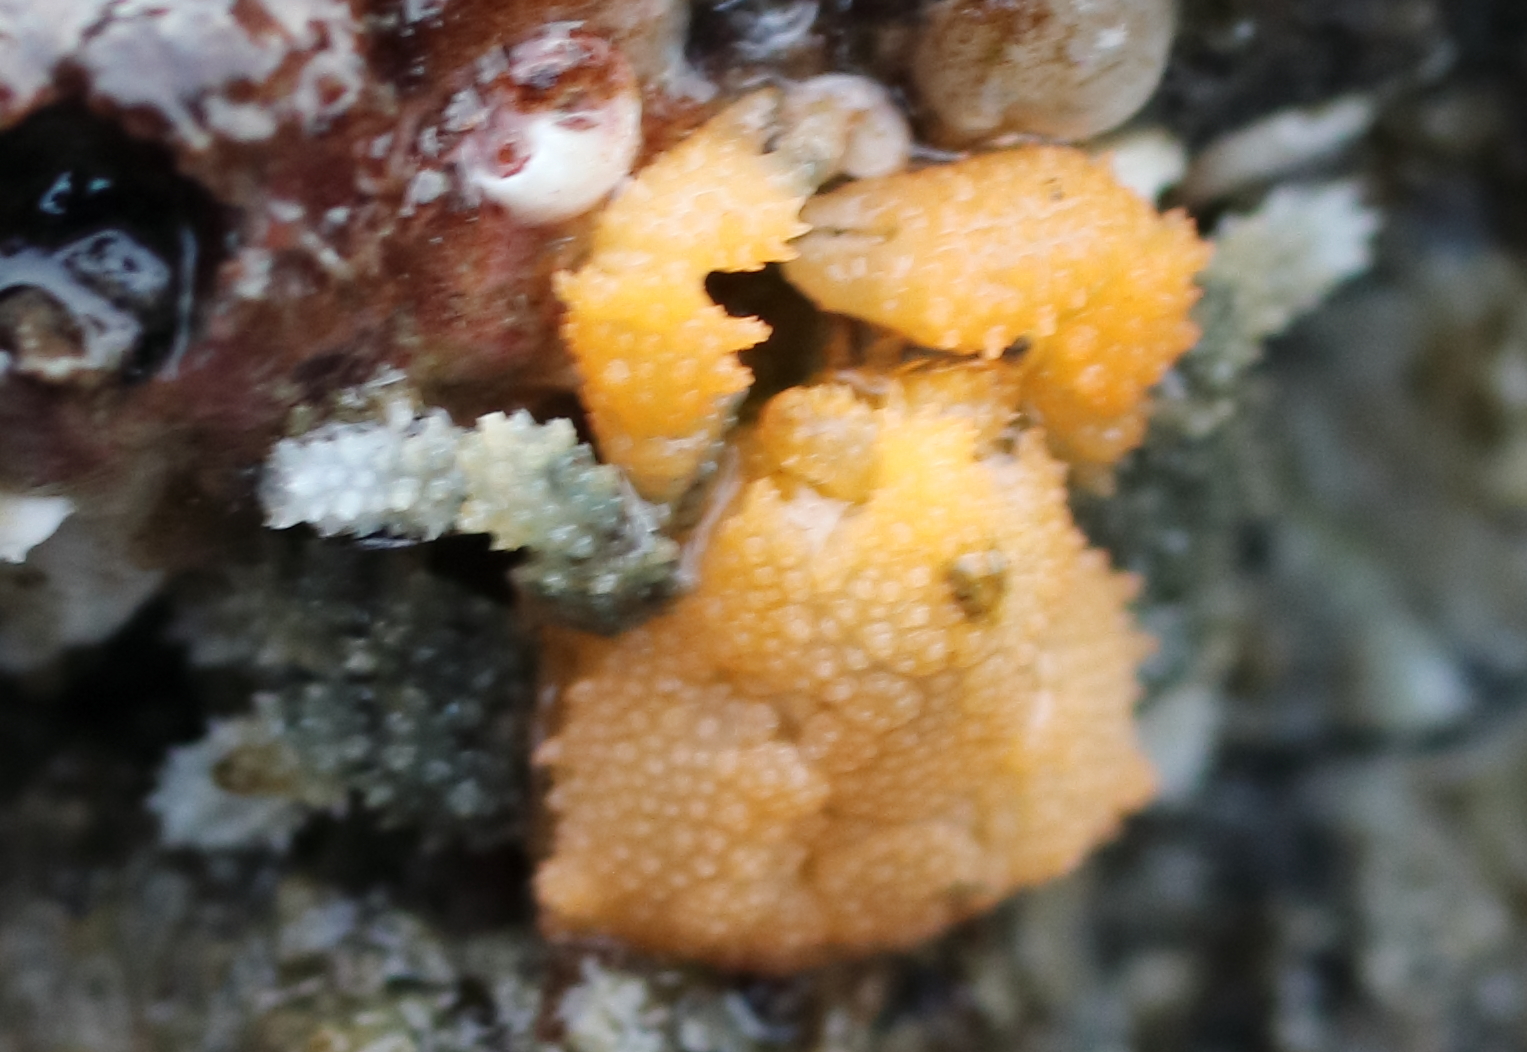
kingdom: Animalia
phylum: Arthropoda
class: Malacostraca
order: Decapoda
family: Lithodidae
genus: Phyllolithodes
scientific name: Phyllolithodes papillosus
